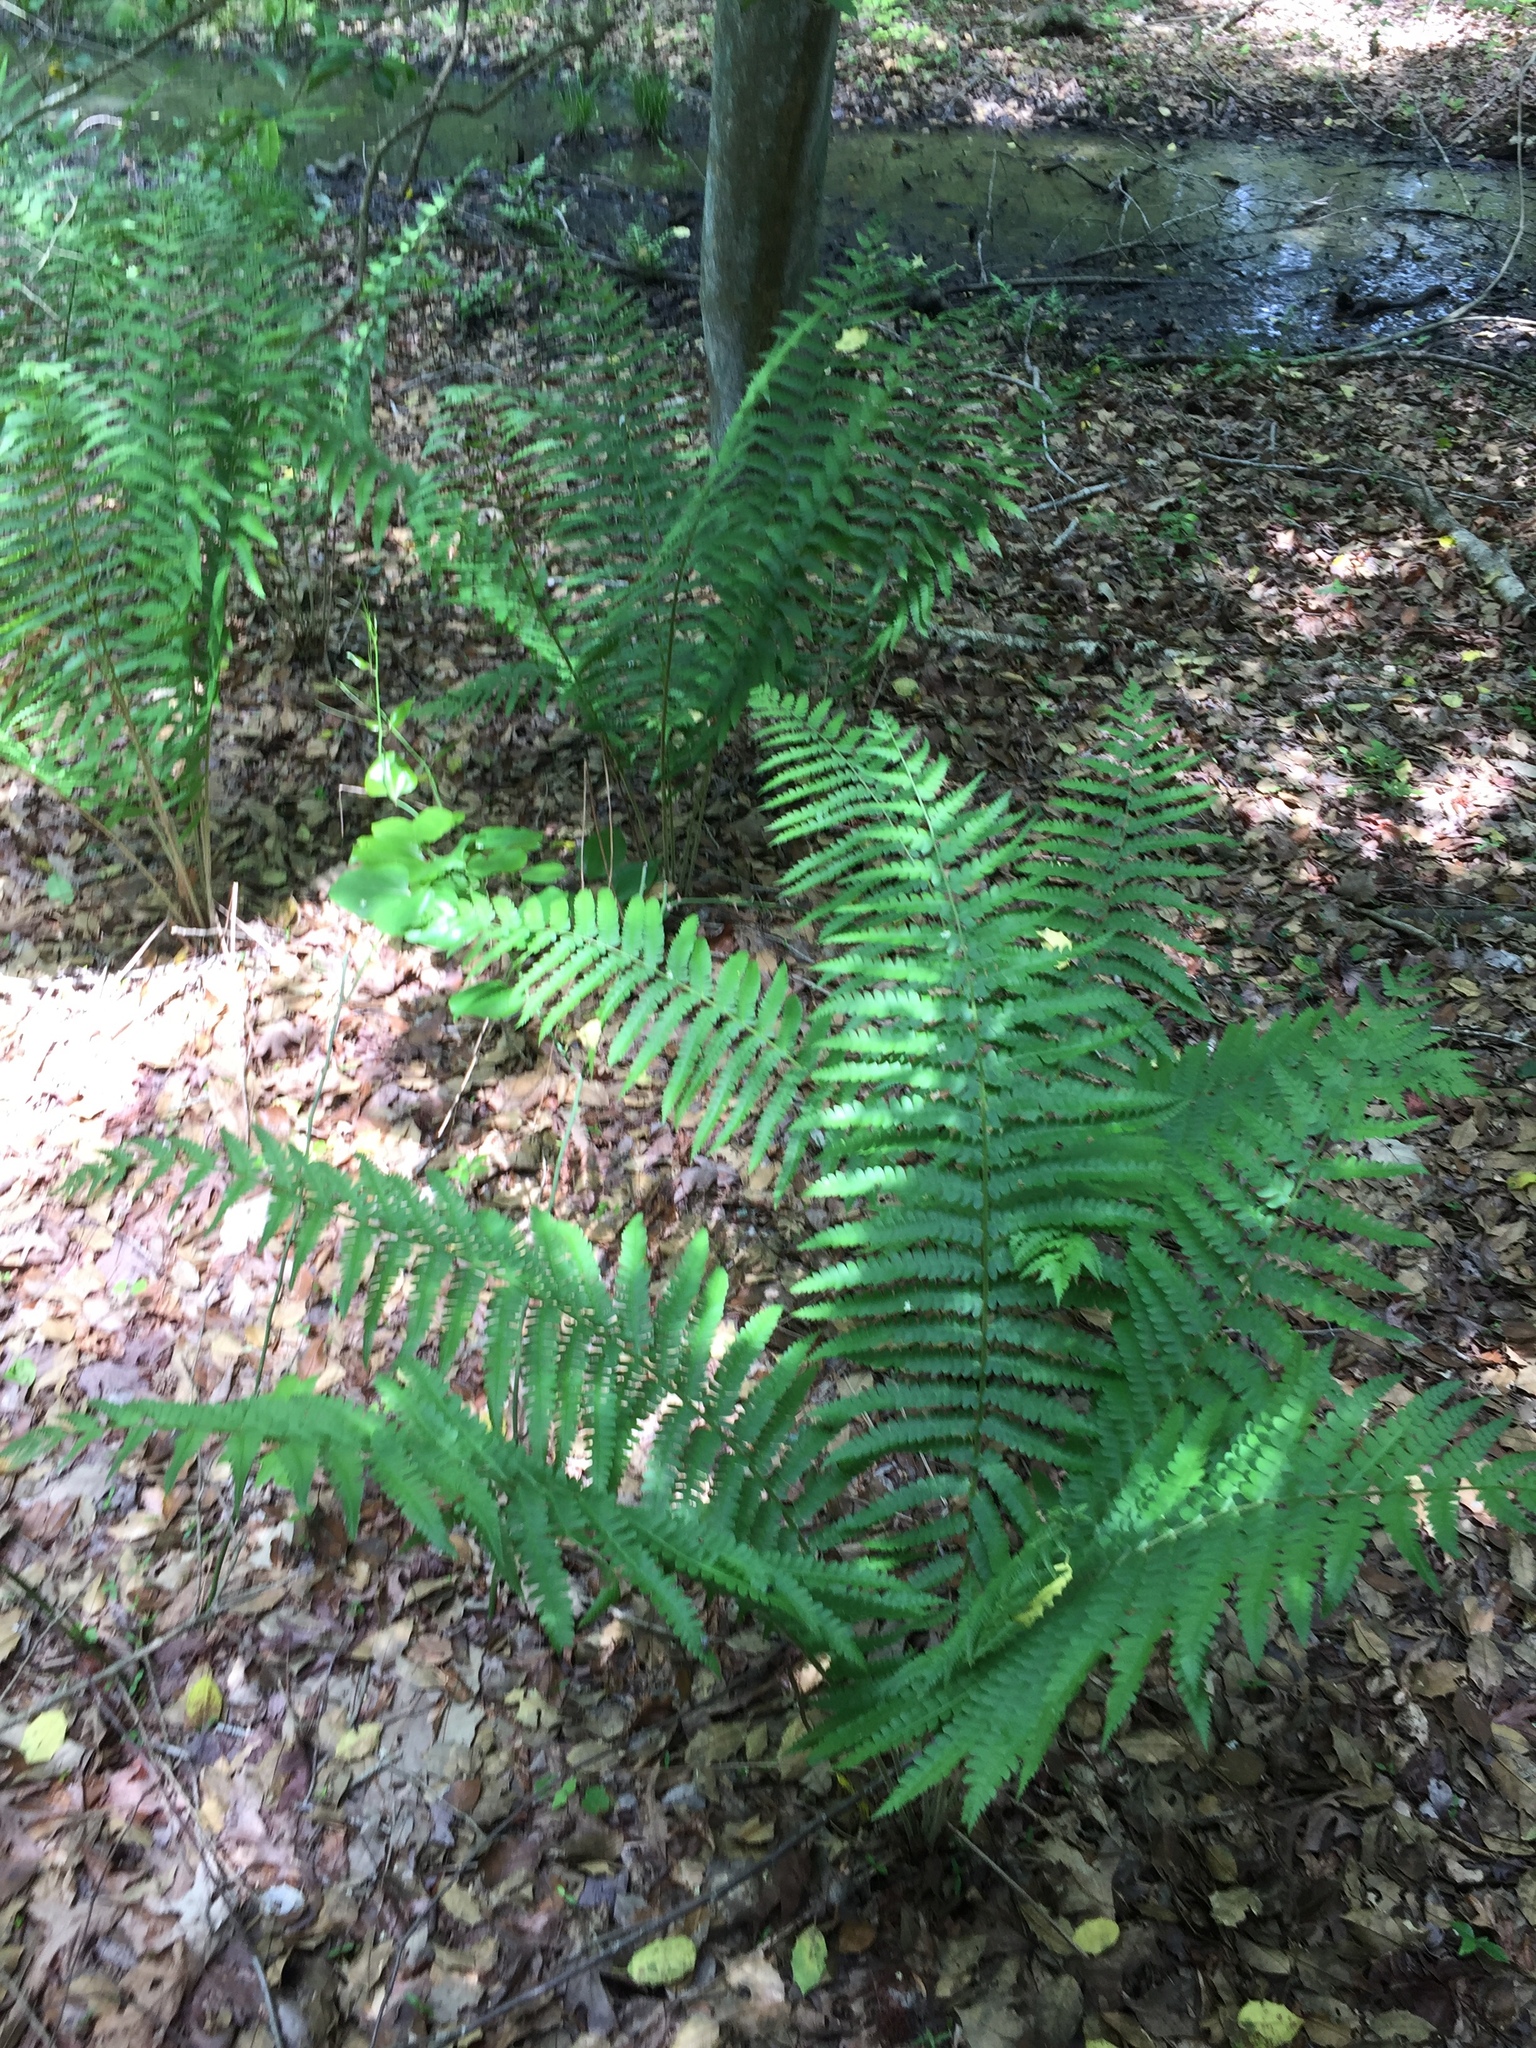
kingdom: Plantae
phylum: Tracheophyta
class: Polypodiopsida
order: Osmundales
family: Osmundaceae
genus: Osmundastrum
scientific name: Osmundastrum cinnamomeum
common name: Cinnamon fern
